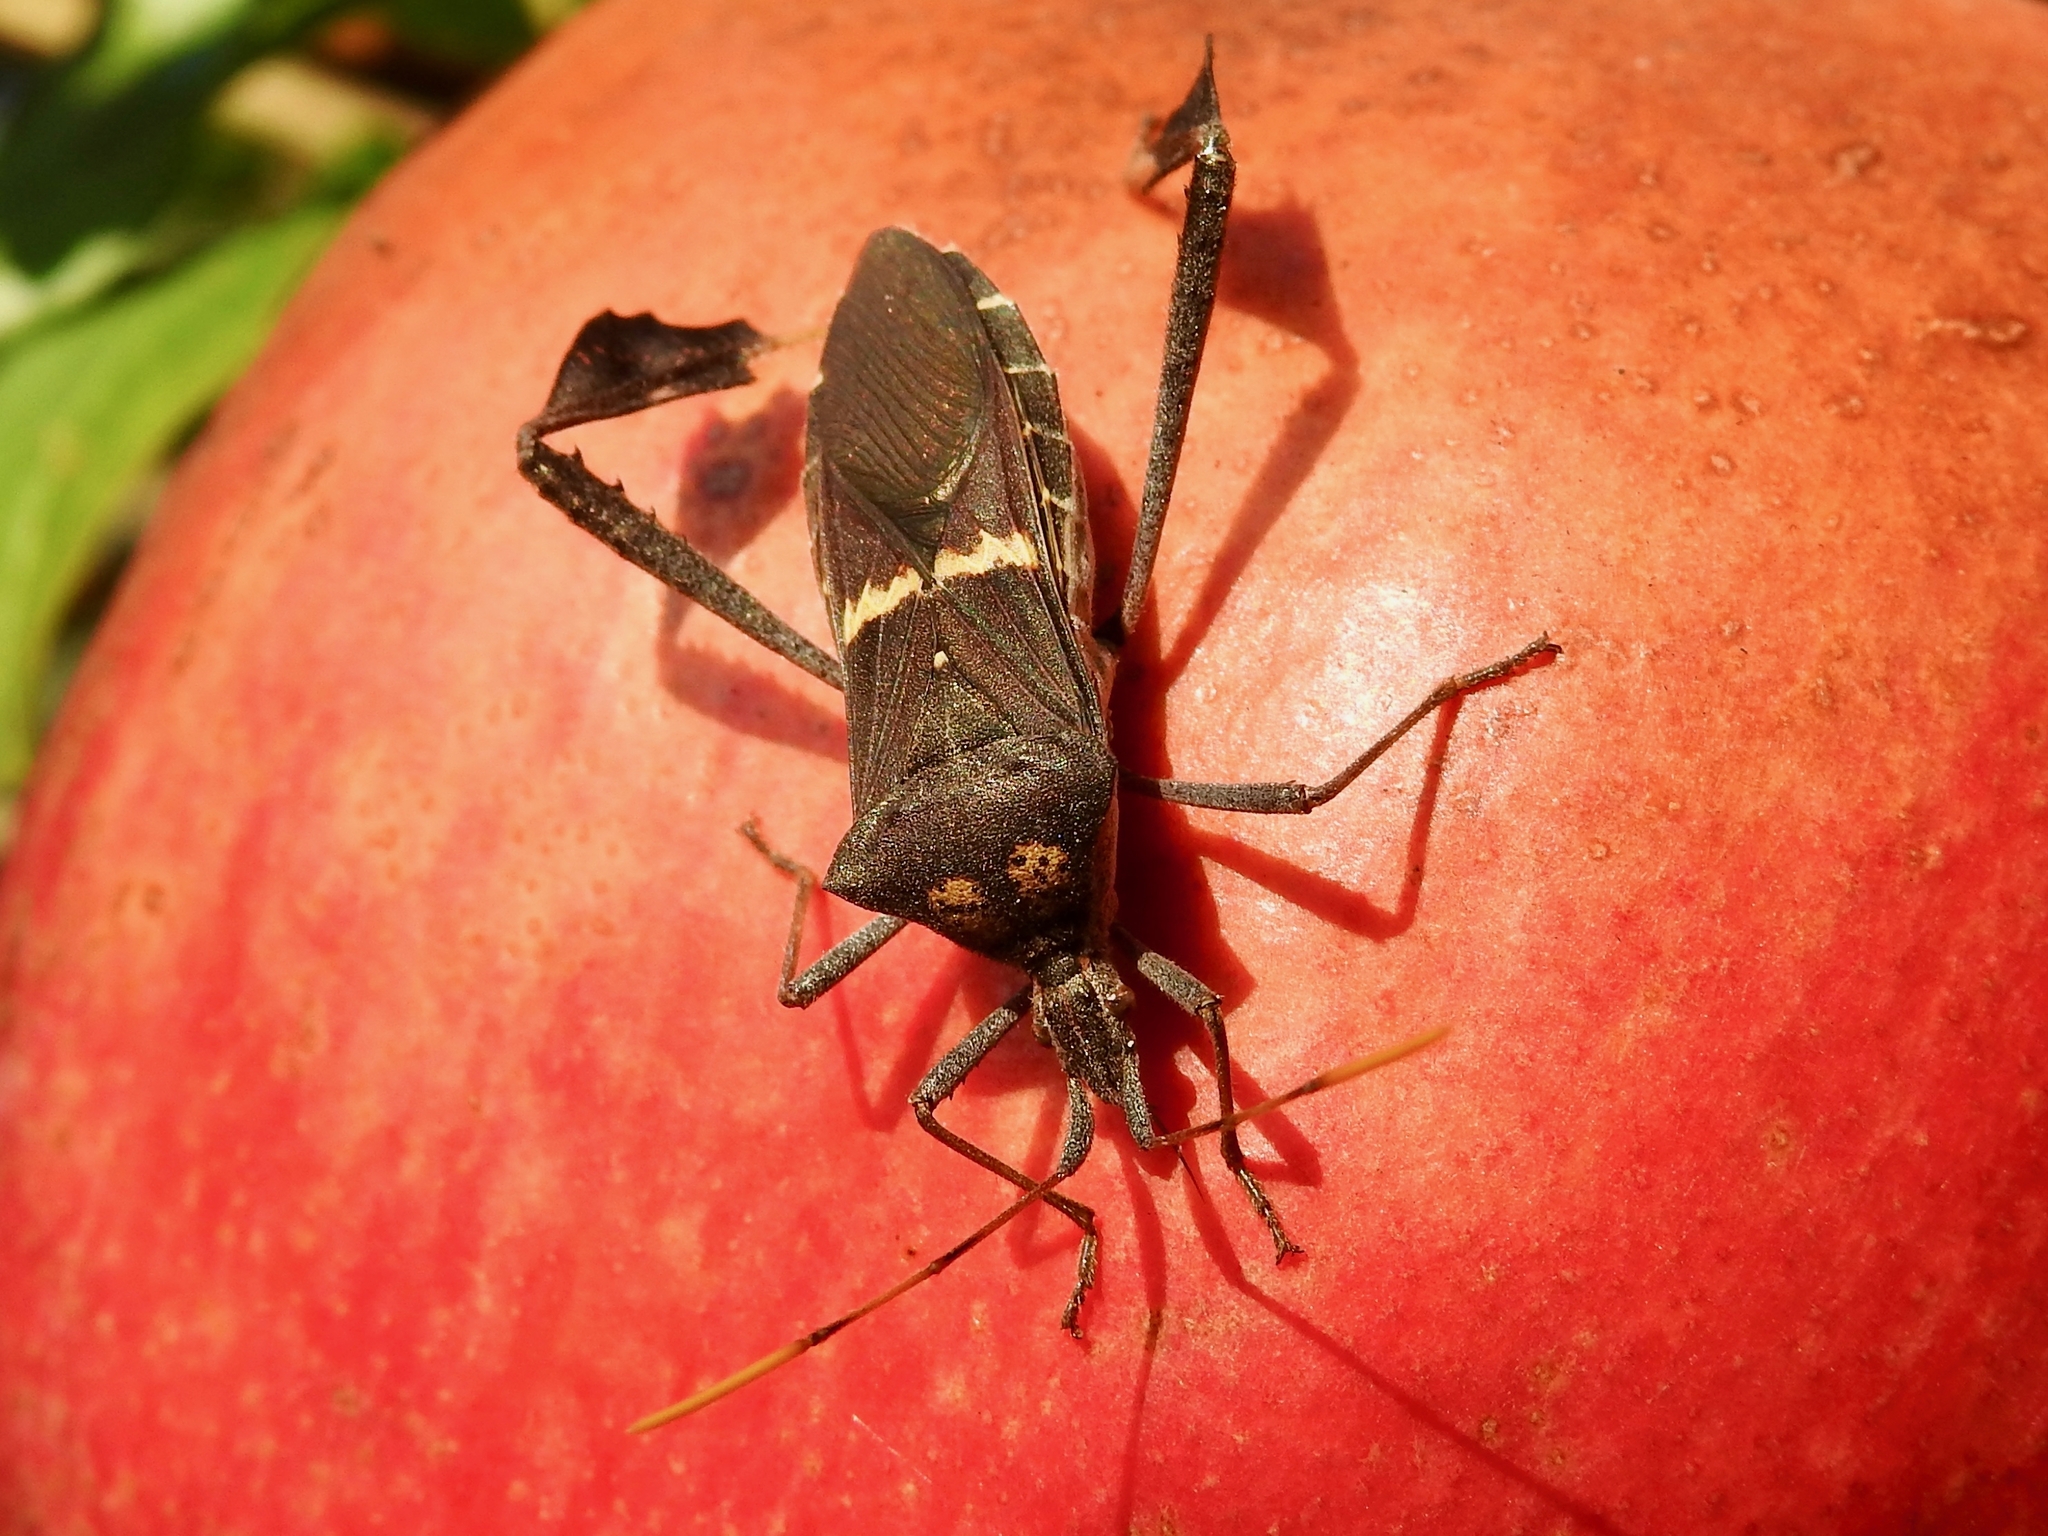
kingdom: Animalia
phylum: Arthropoda
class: Insecta
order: Hemiptera
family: Coreidae
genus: Leptoglossus
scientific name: Leptoglossus zonatus
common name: Large-legged bug
